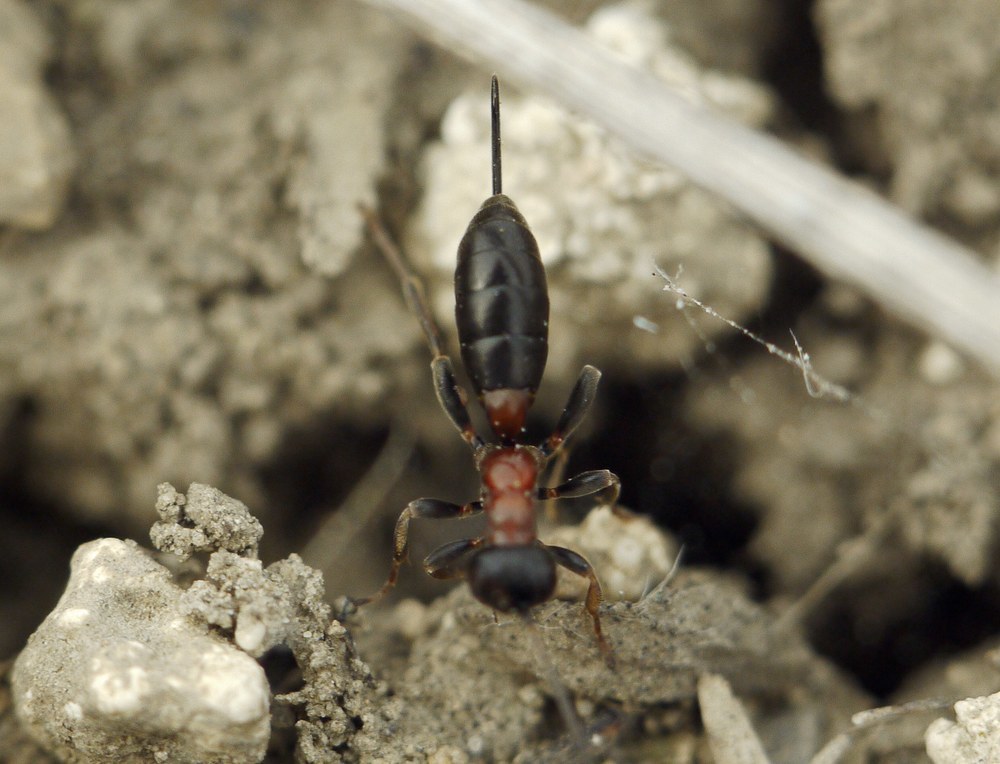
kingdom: Animalia
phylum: Arthropoda
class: Insecta
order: Hymenoptera
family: Ichneumonidae
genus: Thaumatogelis
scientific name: Thaumatogelis gallicus
